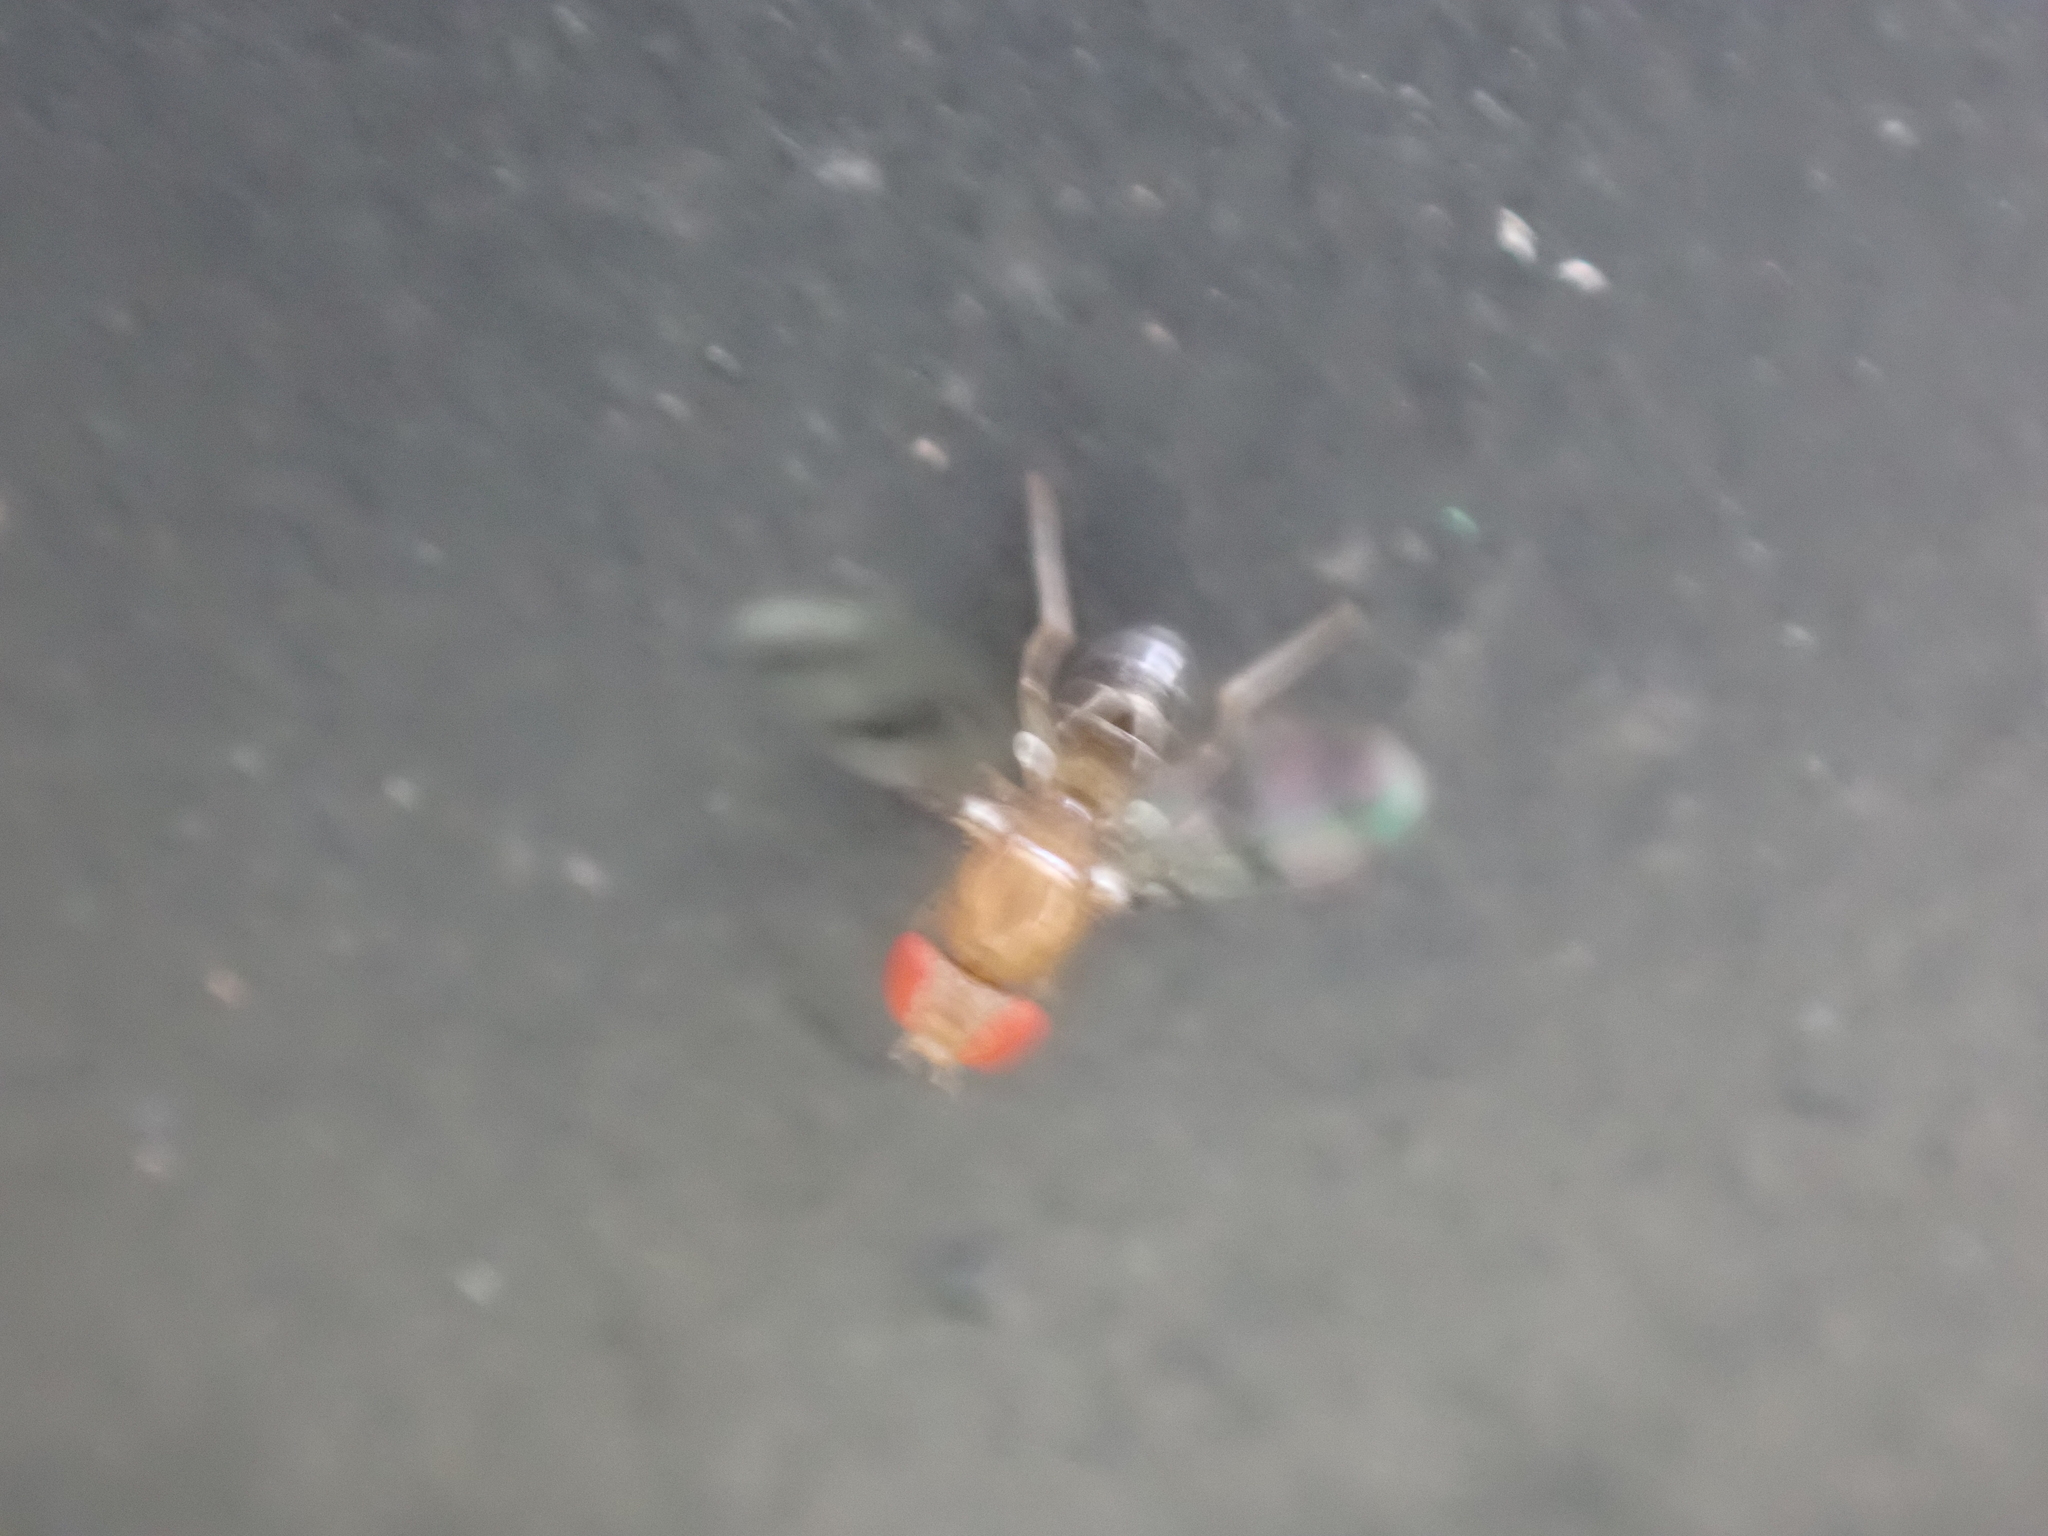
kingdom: Animalia
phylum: Arthropoda
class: Insecta
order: Diptera
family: Drosophilidae
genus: Chymomyza
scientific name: Chymomyza amoena
